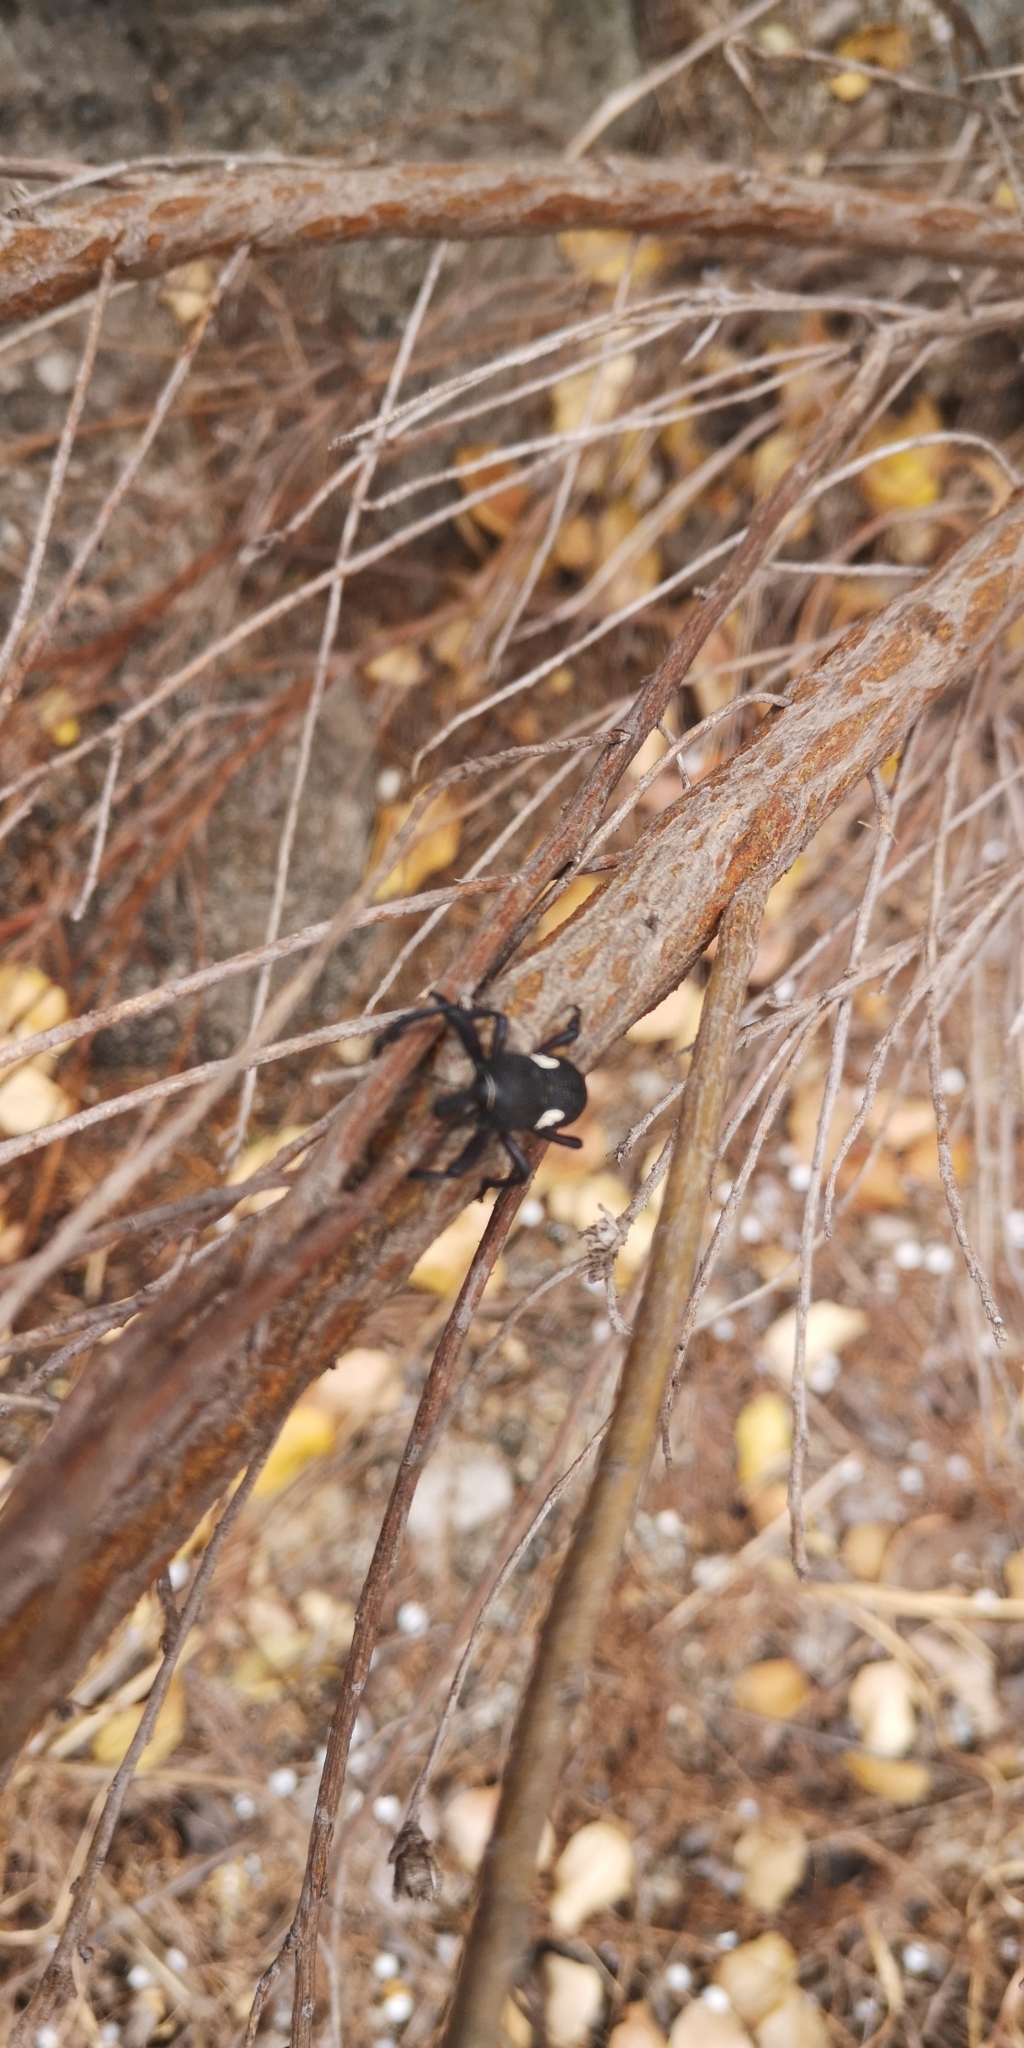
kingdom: Animalia
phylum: Arthropoda
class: Insecta
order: Coleoptera
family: Curculionidae
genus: Rhyephenes
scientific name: Rhyephenes gayi
